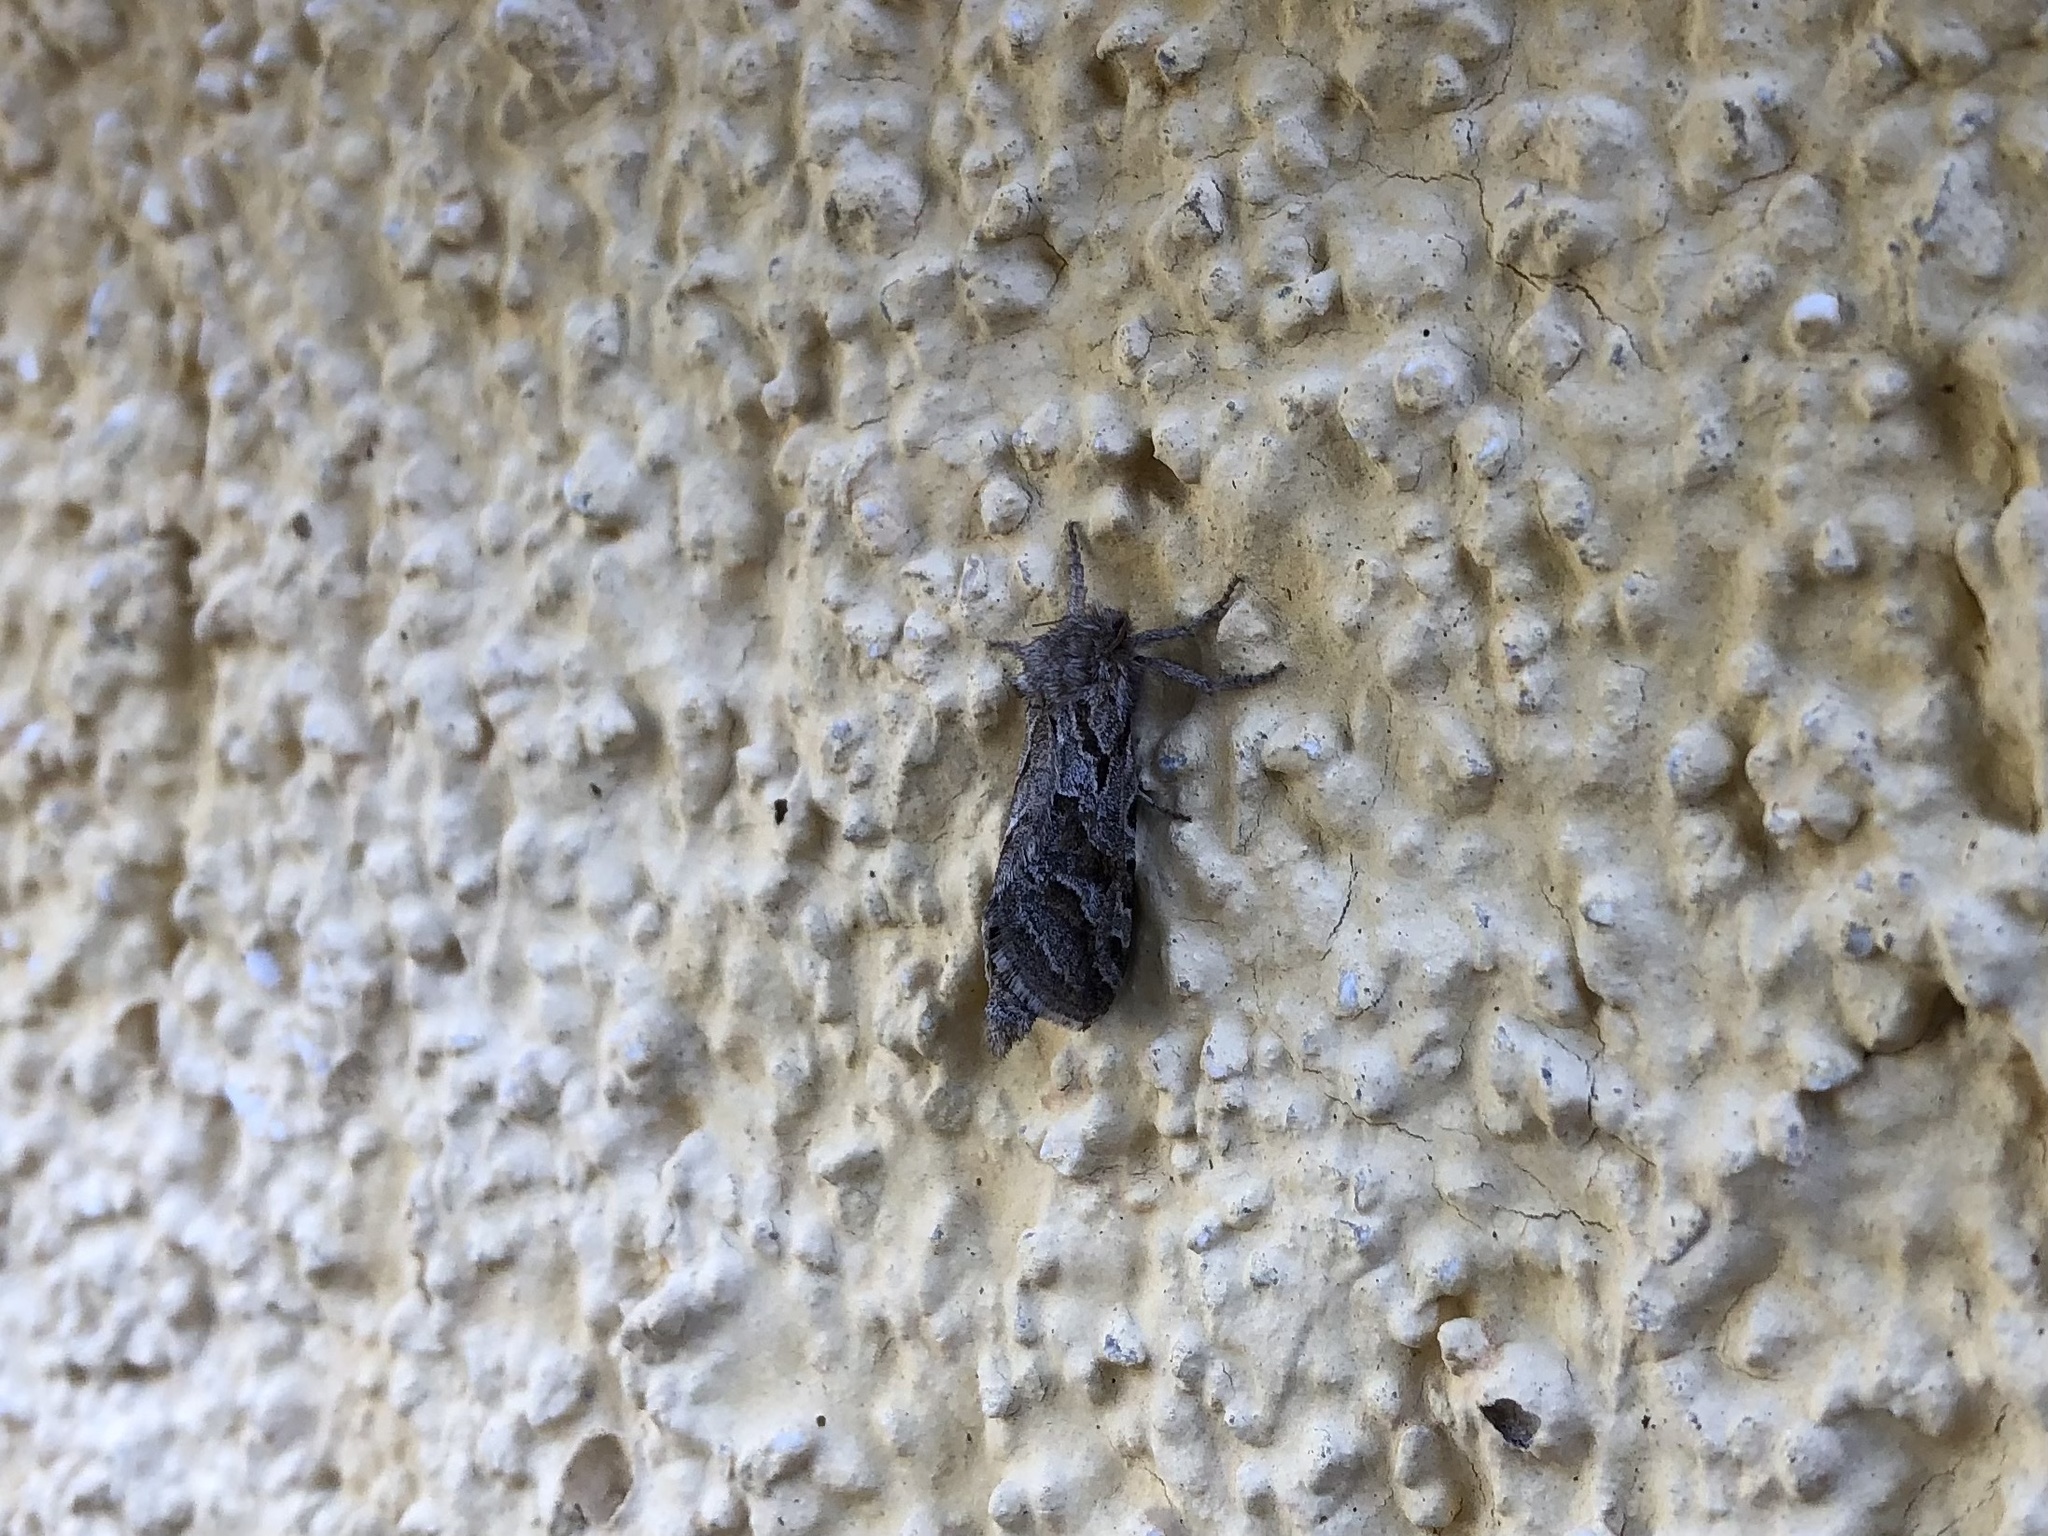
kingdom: Animalia
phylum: Arthropoda
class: Insecta
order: Lepidoptera
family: Hepialidae
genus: Triodia
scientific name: Triodia adriaticus
